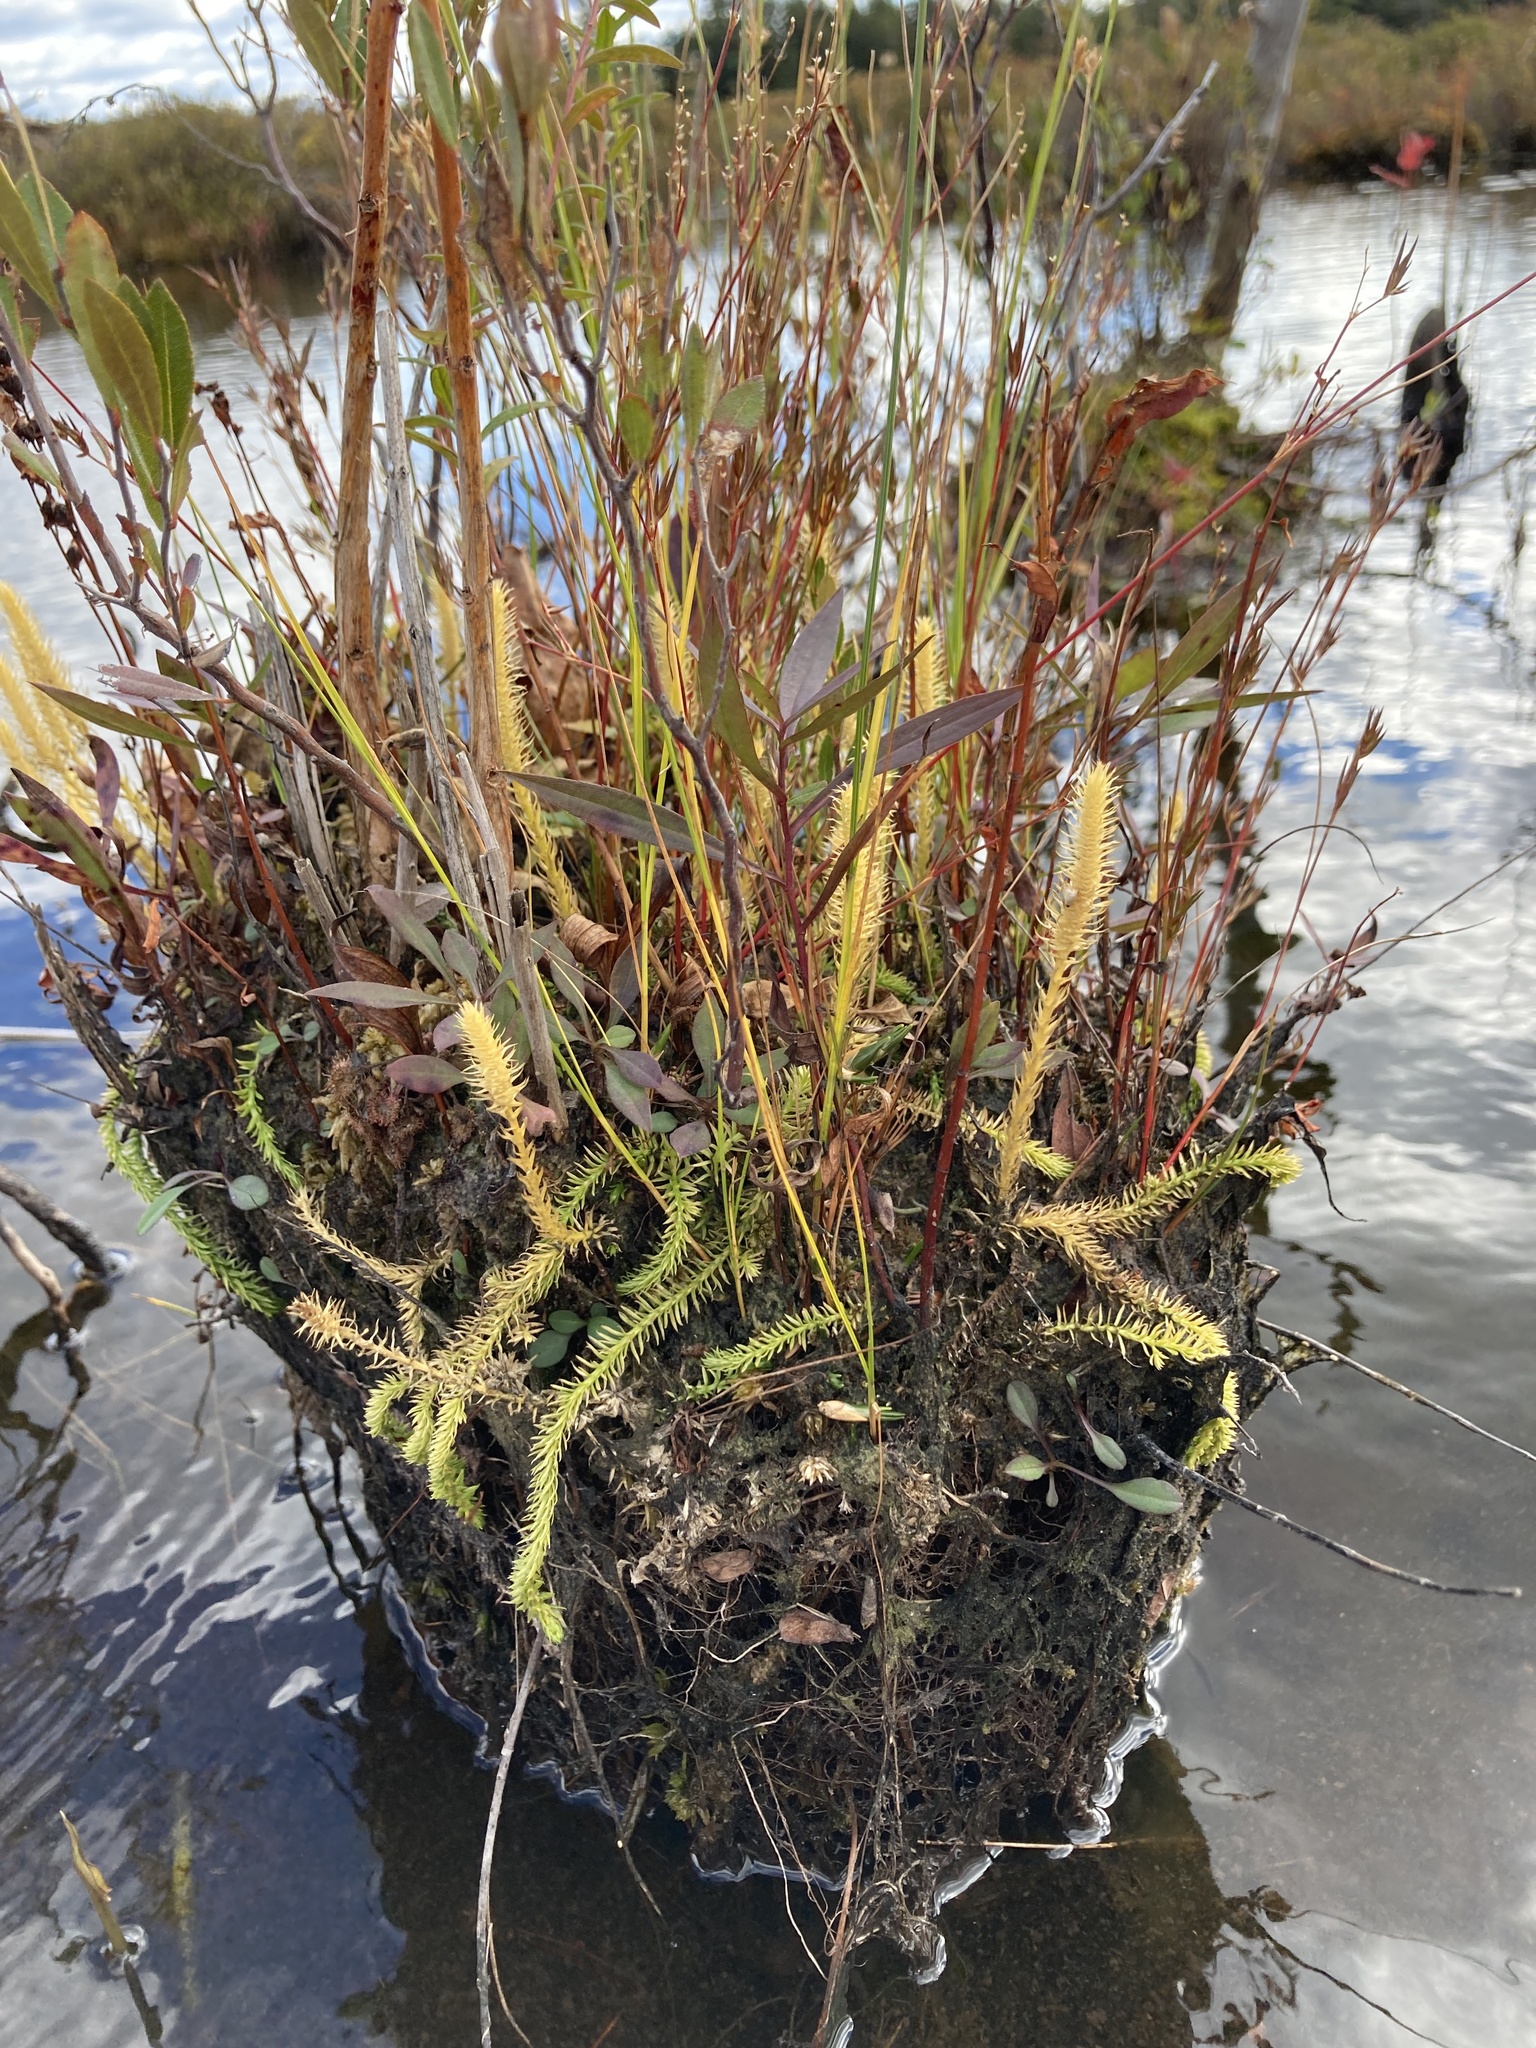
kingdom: Plantae
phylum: Tracheophyta
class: Lycopodiopsida
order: Lycopodiales
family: Lycopodiaceae
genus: Lycopodiella
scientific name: Lycopodiella inundata
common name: Marsh clubmoss
